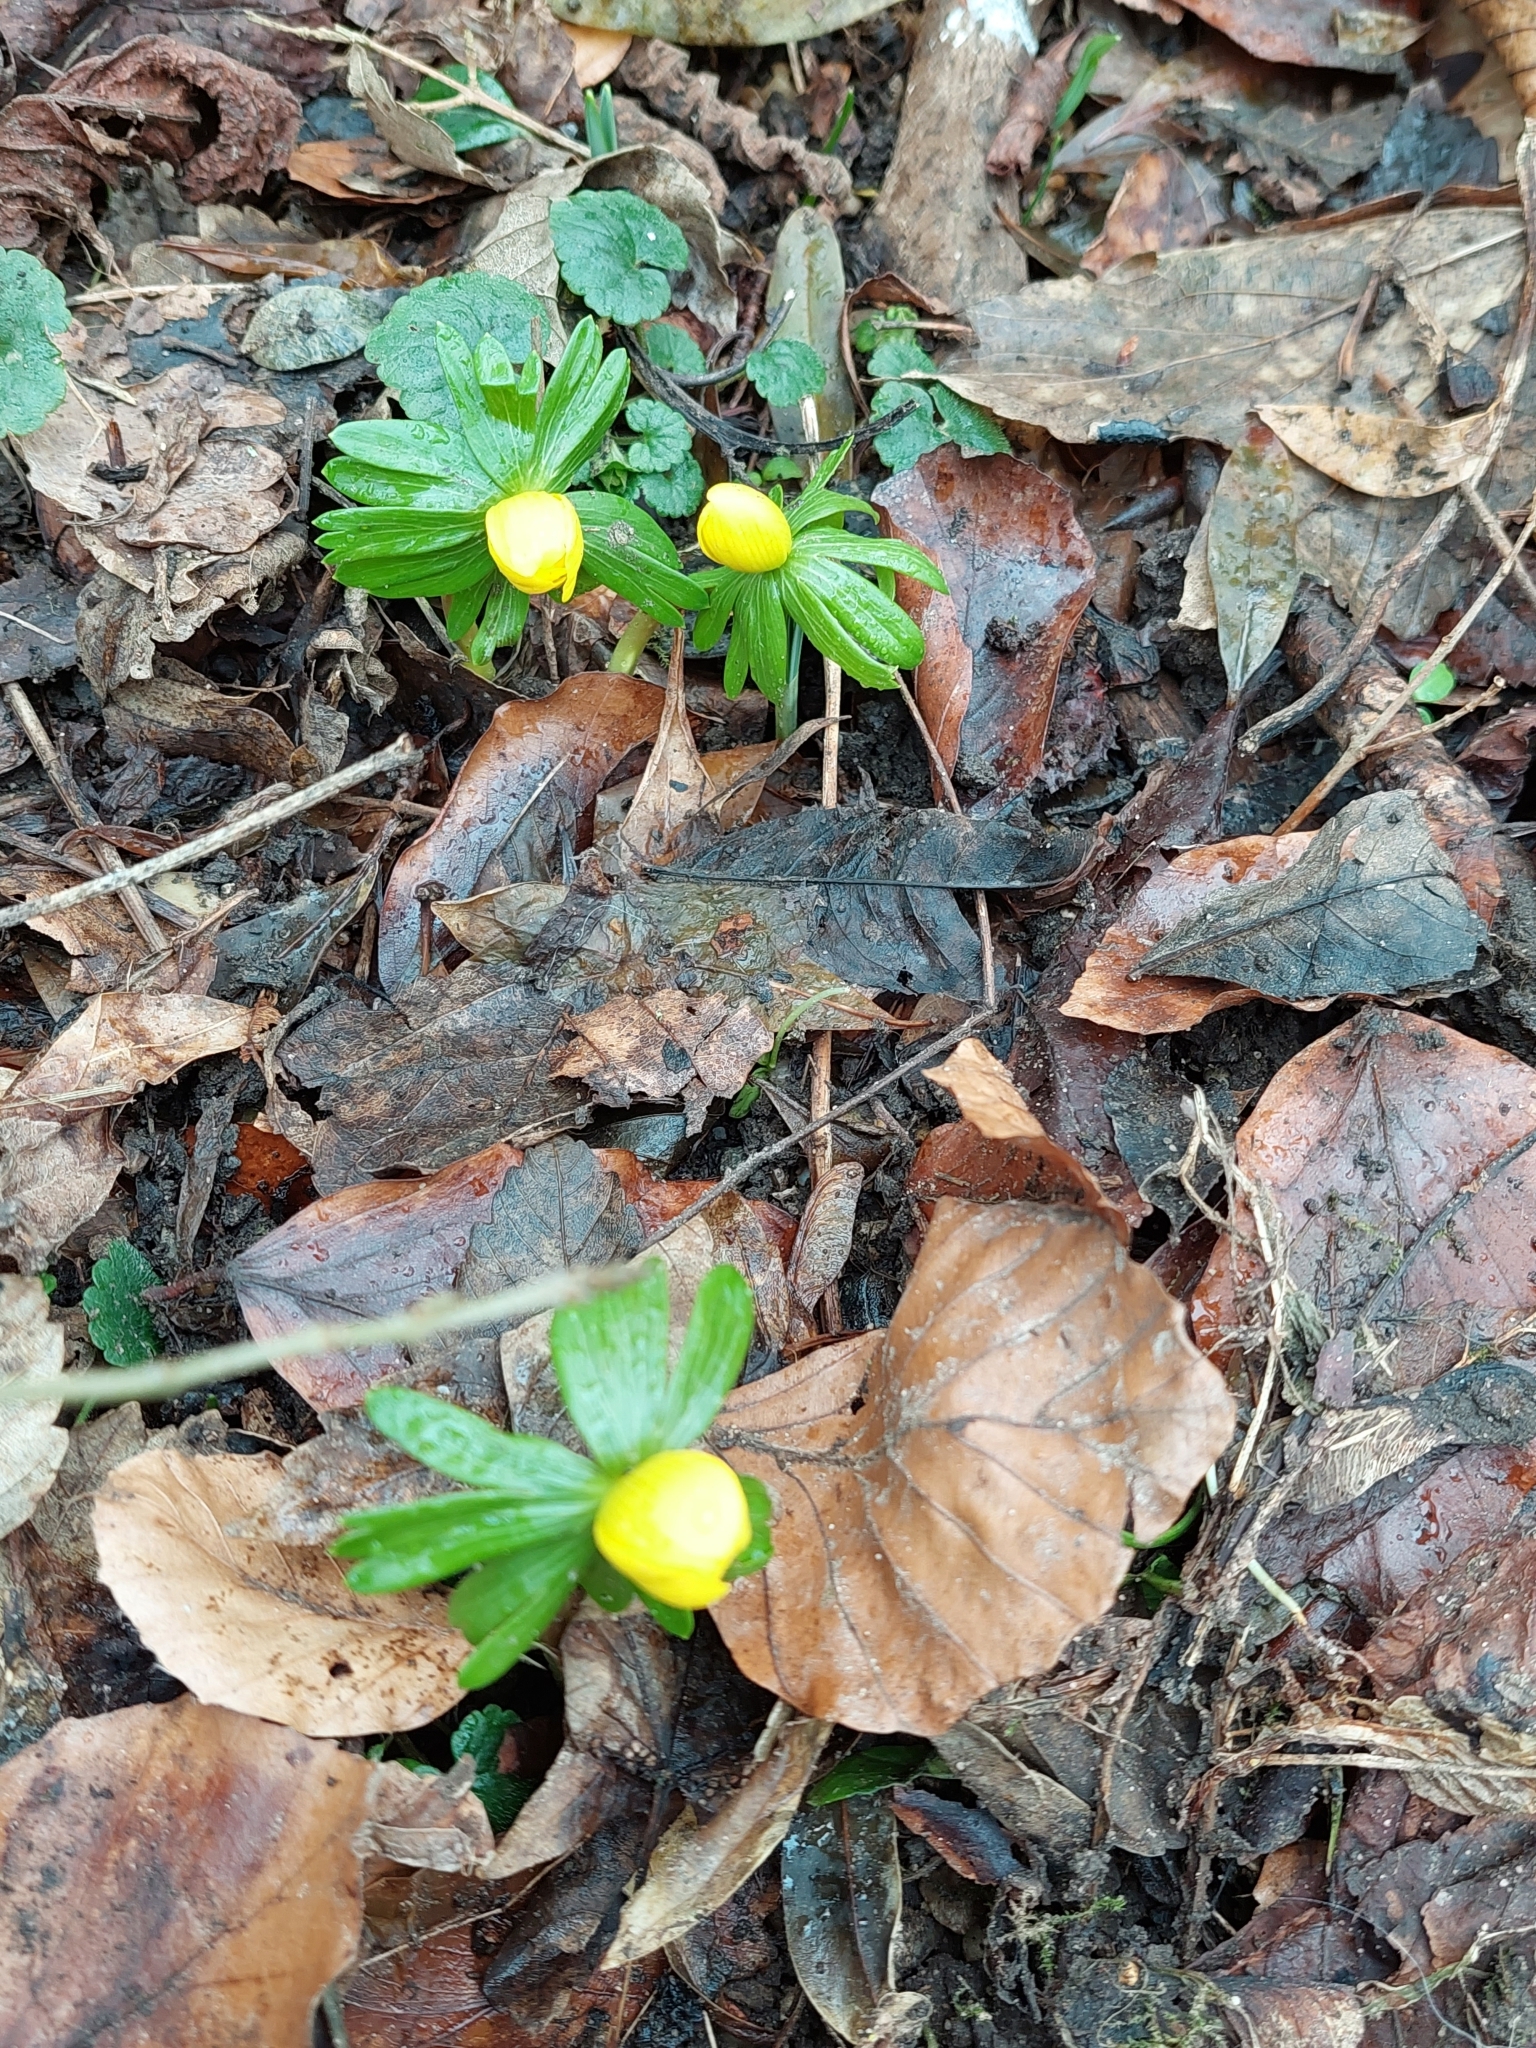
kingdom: Plantae
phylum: Tracheophyta
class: Magnoliopsida
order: Ranunculales
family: Ranunculaceae
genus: Eranthis
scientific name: Eranthis hyemalis
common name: Winter aconite
